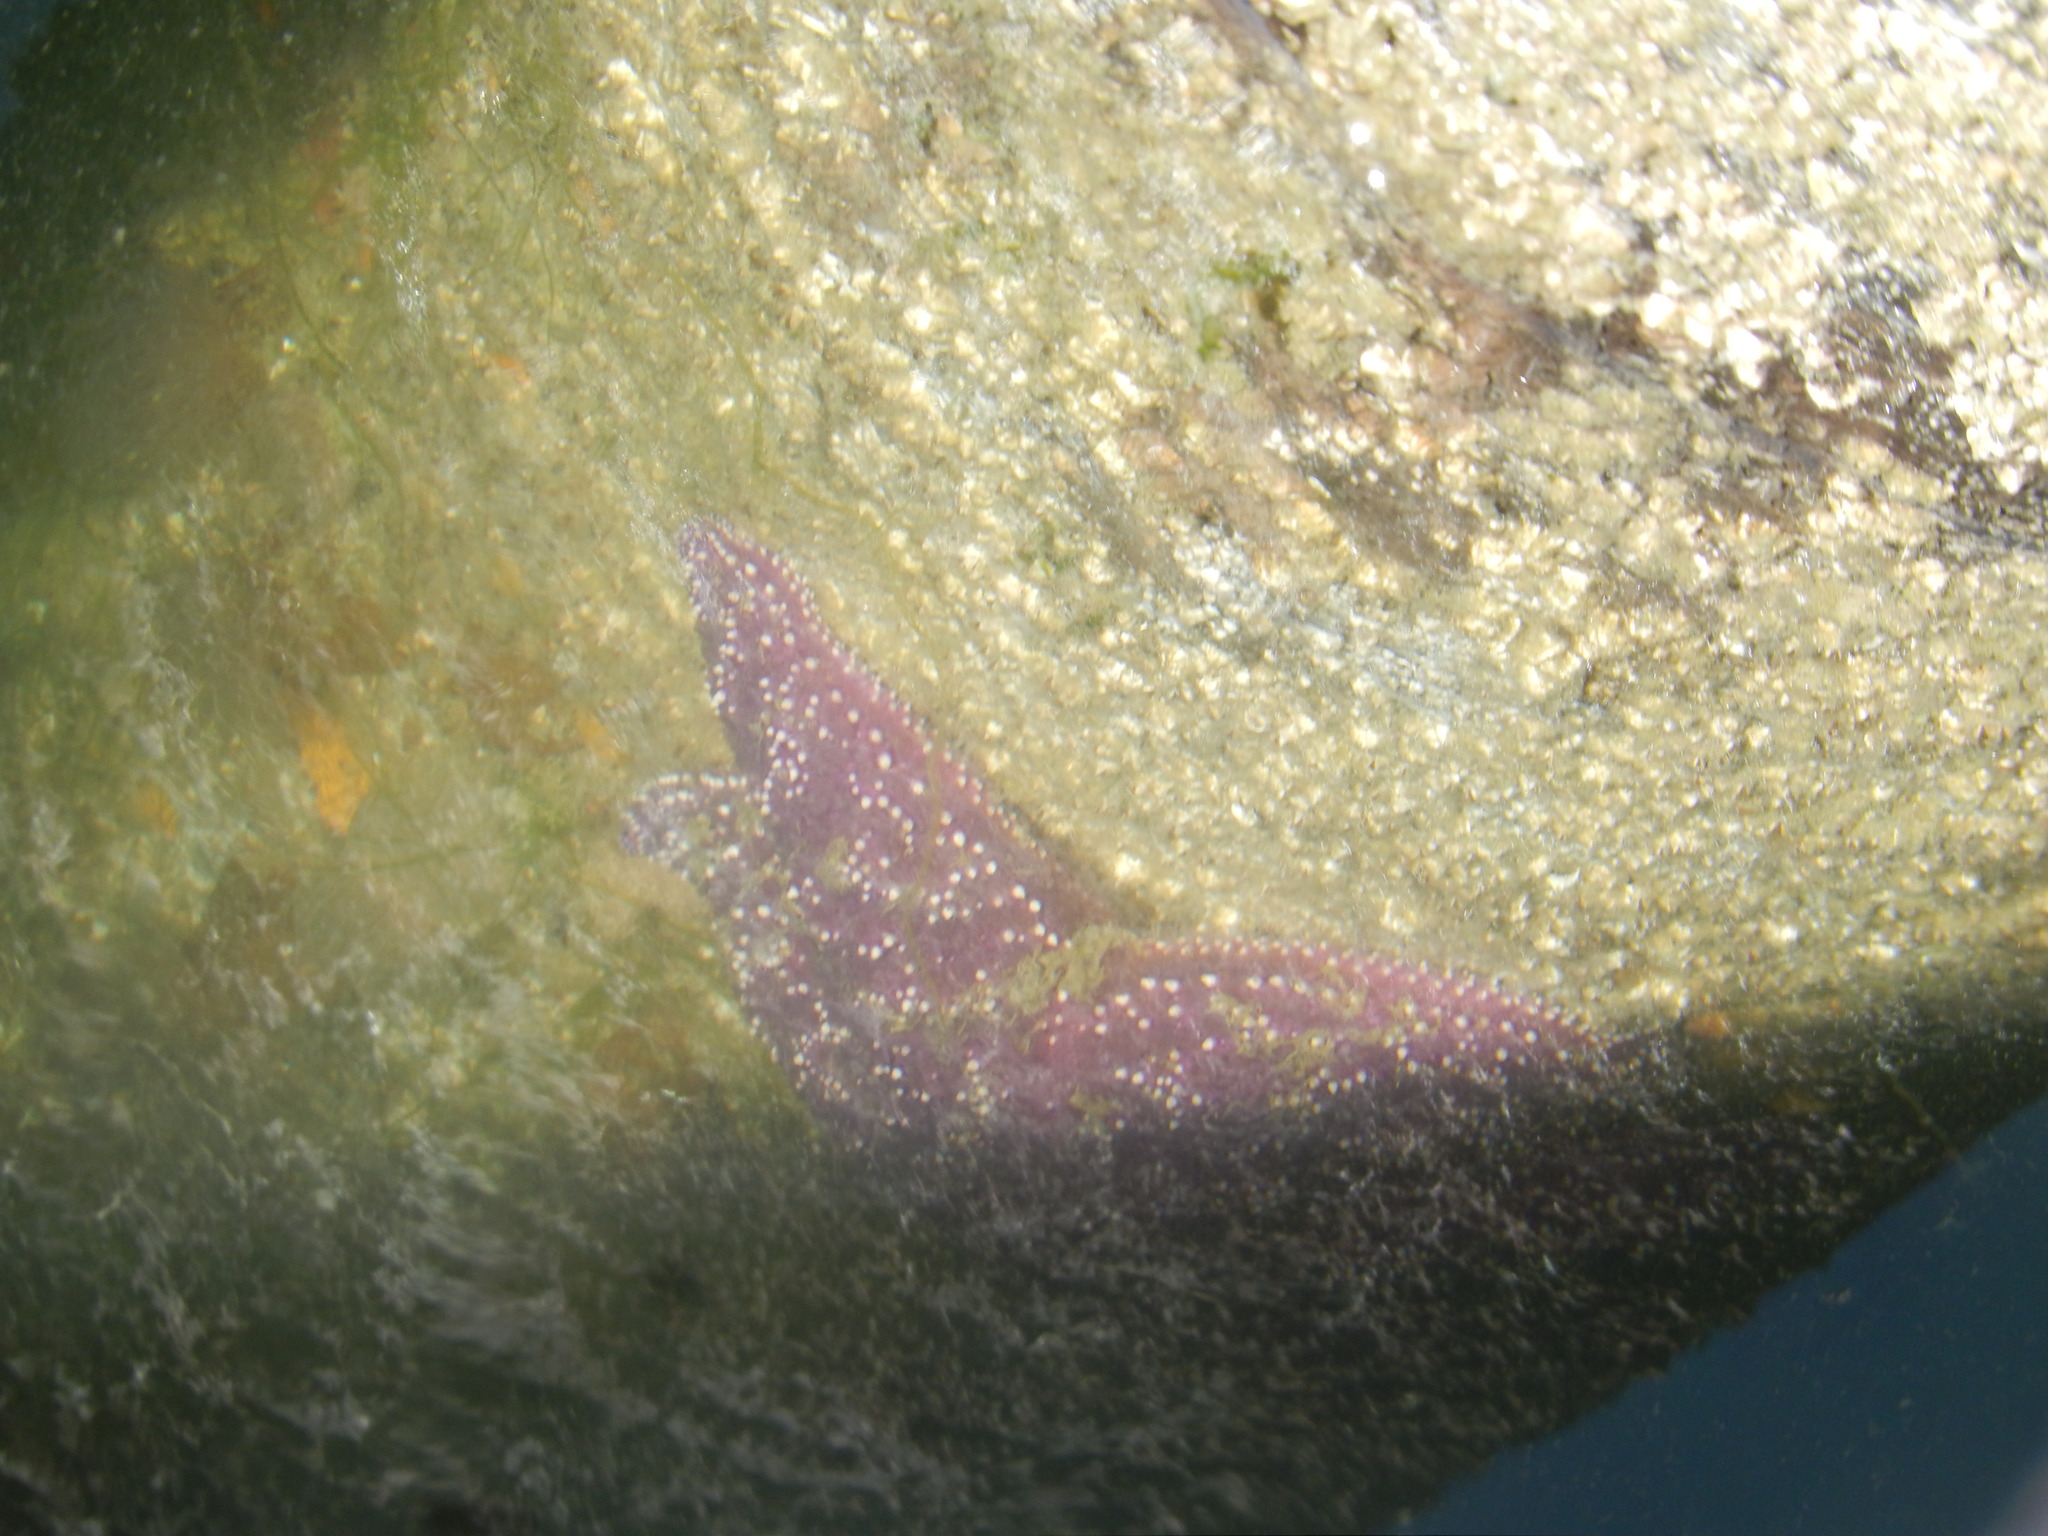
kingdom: Animalia
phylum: Echinodermata
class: Asteroidea
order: Forcipulatida
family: Asteriidae
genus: Pisaster
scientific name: Pisaster ochraceus
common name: Ochre stars
